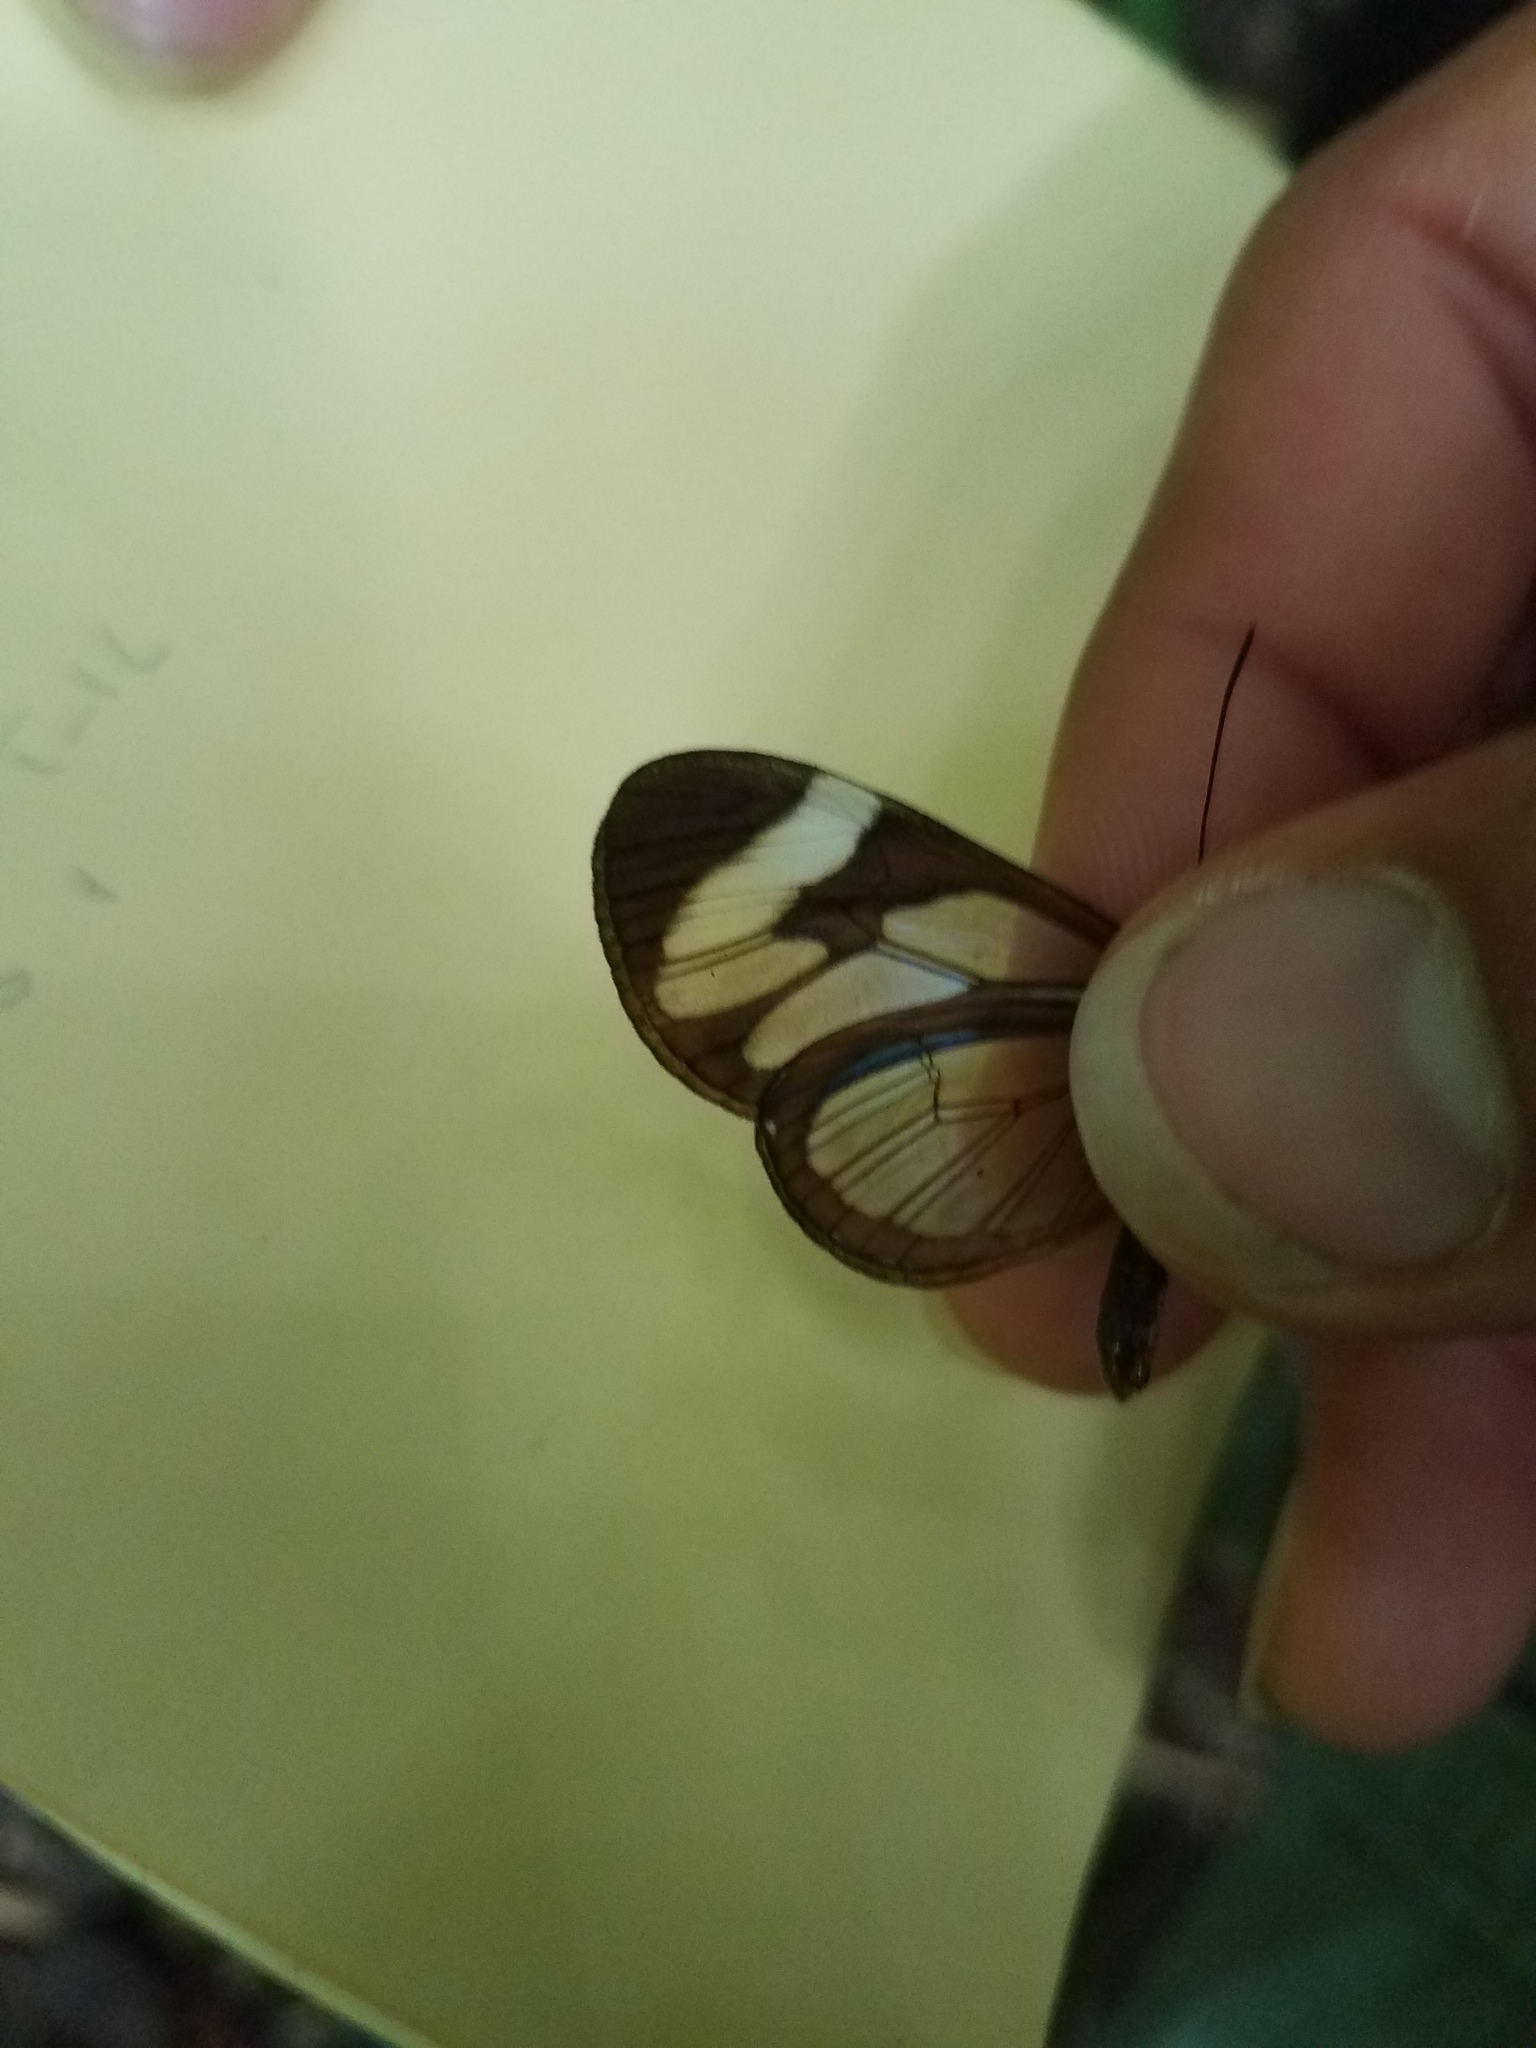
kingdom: Animalia
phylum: Arthropoda
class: Insecta
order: Lepidoptera
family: Nymphalidae
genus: Ithomia
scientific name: Ithomia patilla
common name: Patilla clearwing
